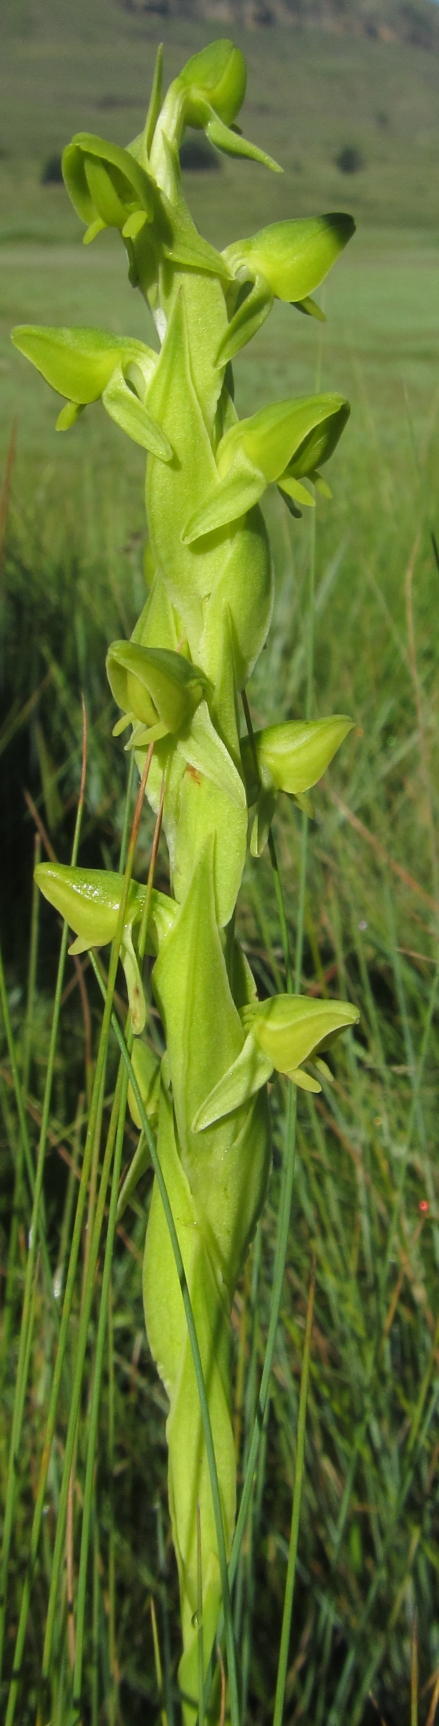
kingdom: Plantae
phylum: Tracheophyta
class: Liliopsida
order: Asparagales
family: Orchidaceae
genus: Habenaria
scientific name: Habenaria laevigata
